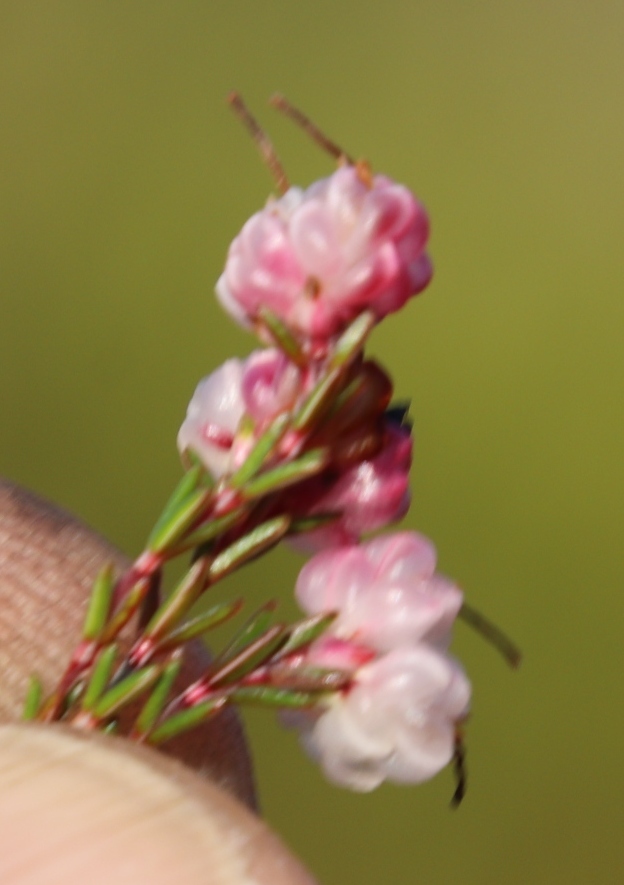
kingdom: Plantae
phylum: Tracheophyta
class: Magnoliopsida
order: Ericales
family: Ericaceae
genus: Erica
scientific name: Erica spumosa
